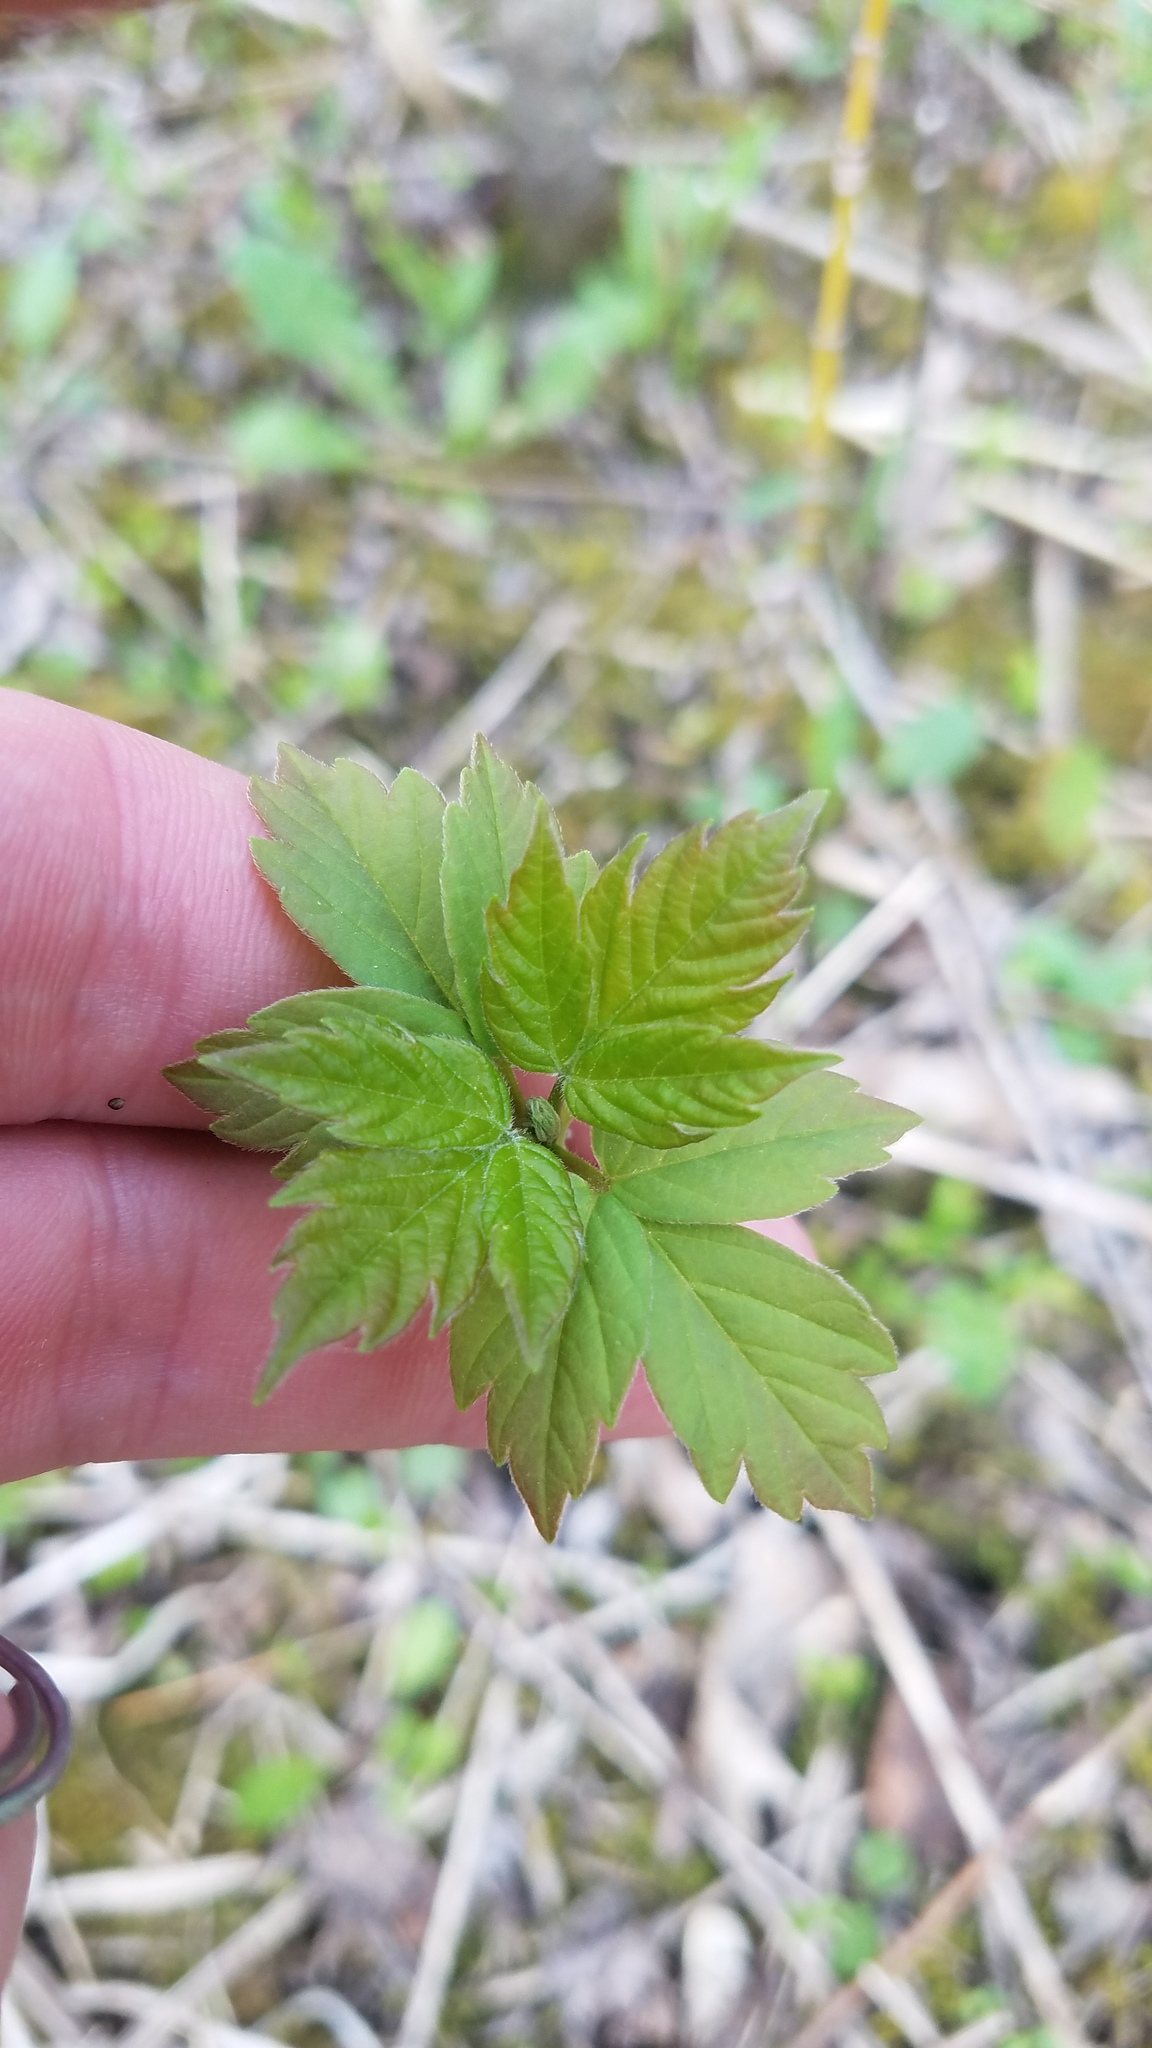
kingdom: Plantae
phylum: Tracheophyta
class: Magnoliopsida
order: Sapindales
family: Sapindaceae
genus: Acer
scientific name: Acer negundo
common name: Ashleaf maple
